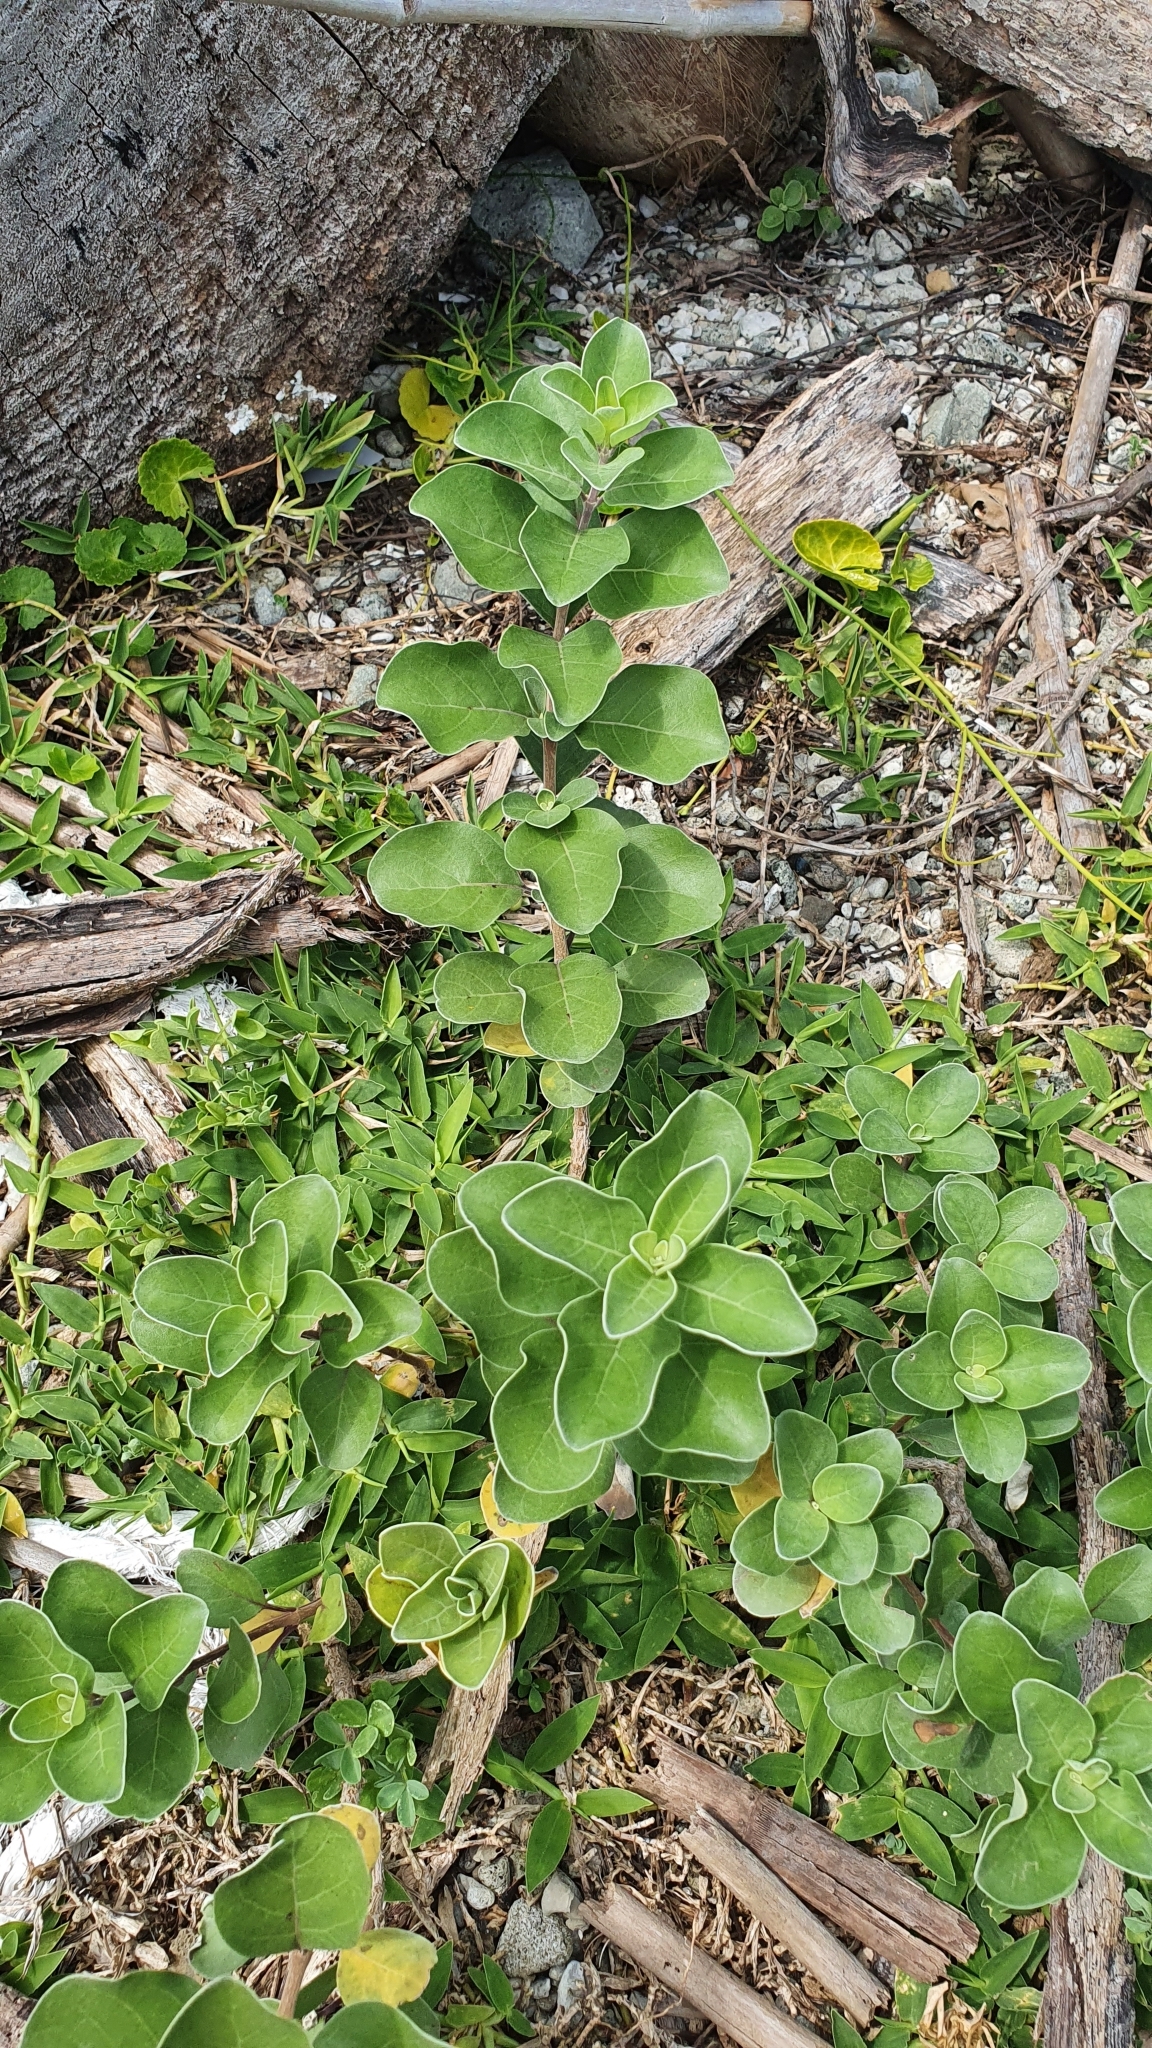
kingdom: Plantae
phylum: Tracheophyta
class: Magnoliopsida
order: Lamiales
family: Lamiaceae
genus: Vitex
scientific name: Vitex rotundifolia
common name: Beach vitex
